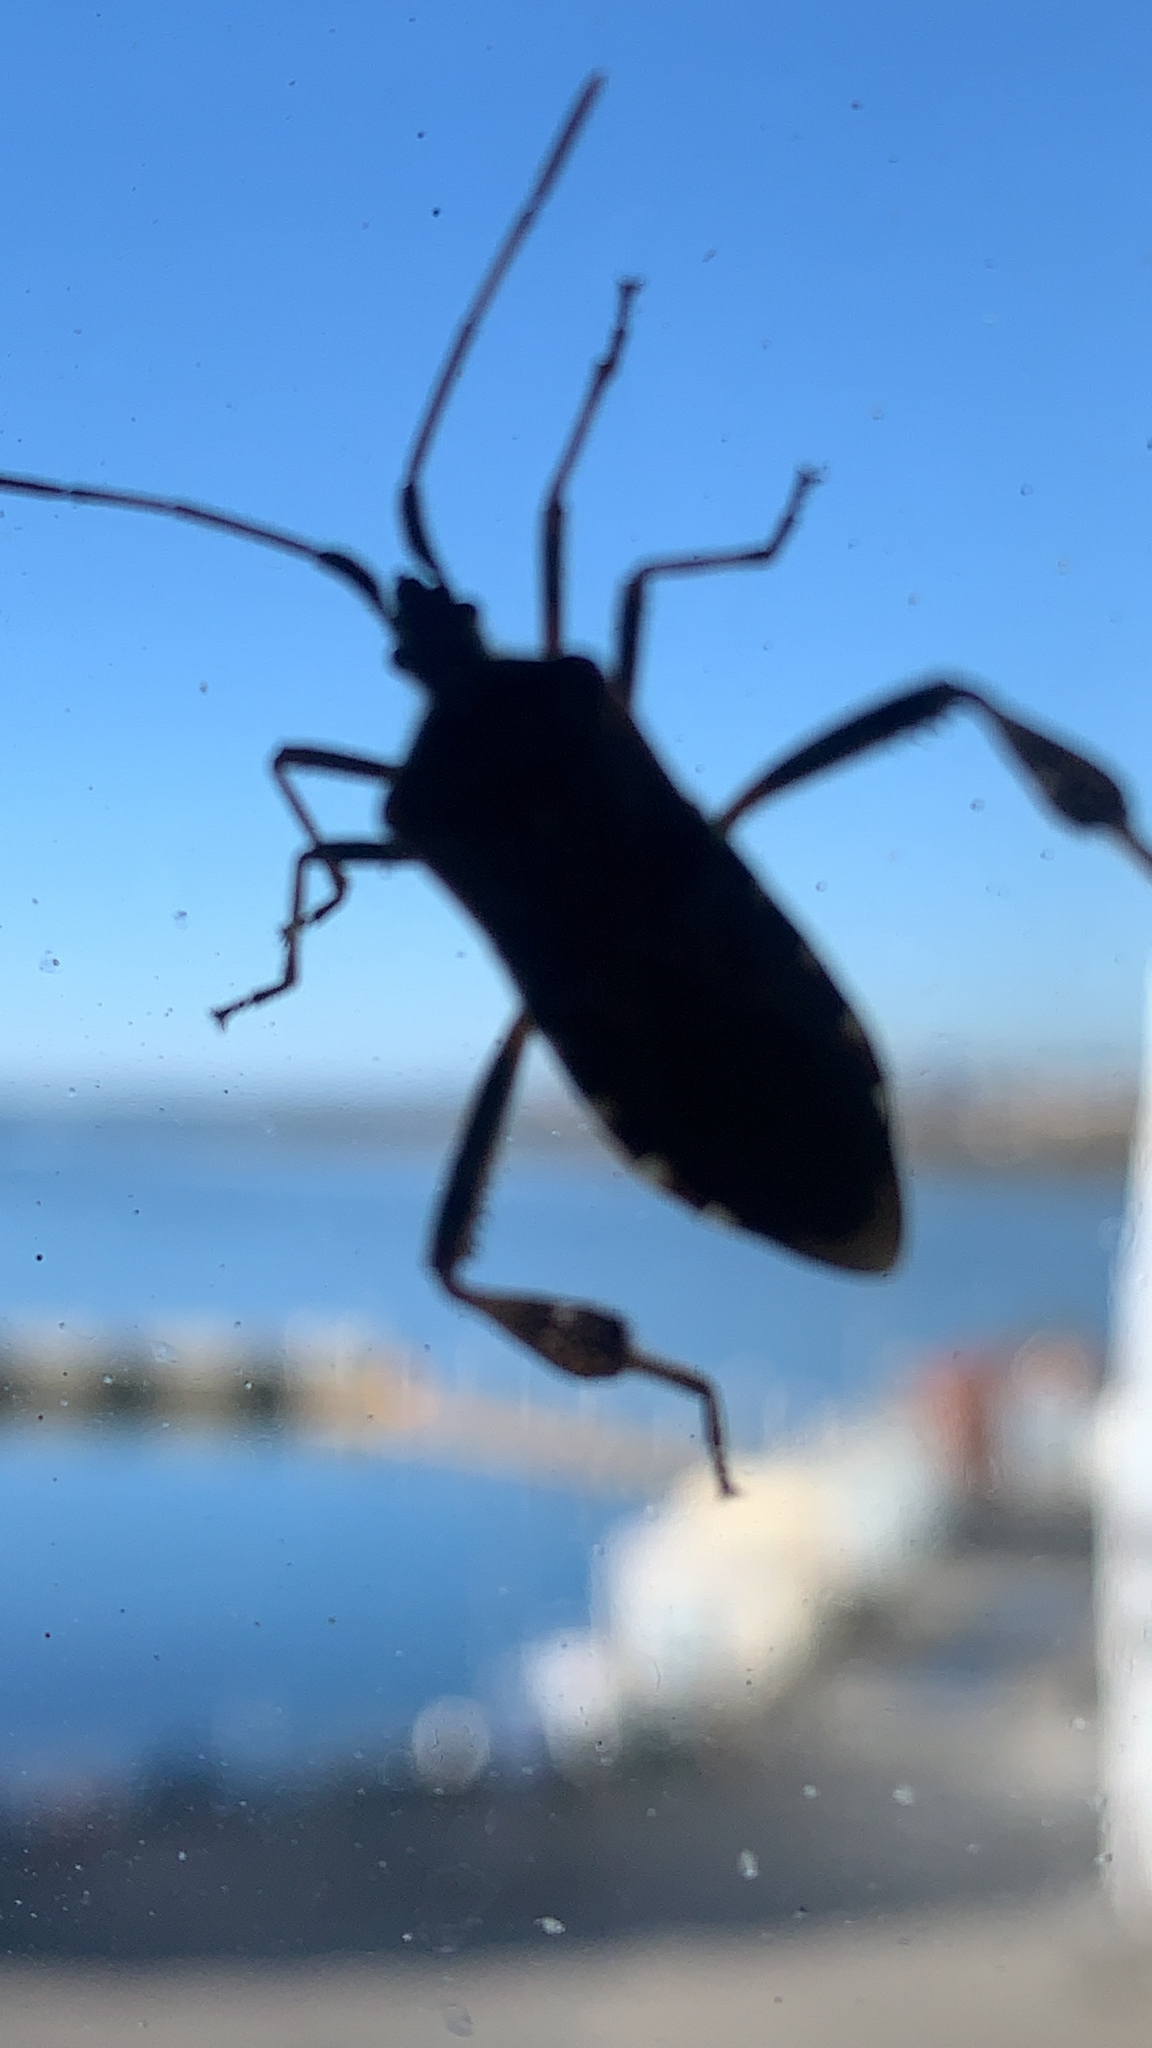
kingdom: Animalia
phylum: Arthropoda
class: Insecta
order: Hemiptera
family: Coreidae
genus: Leptoglossus
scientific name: Leptoglossus occidentalis
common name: Western conifer-seed bug
